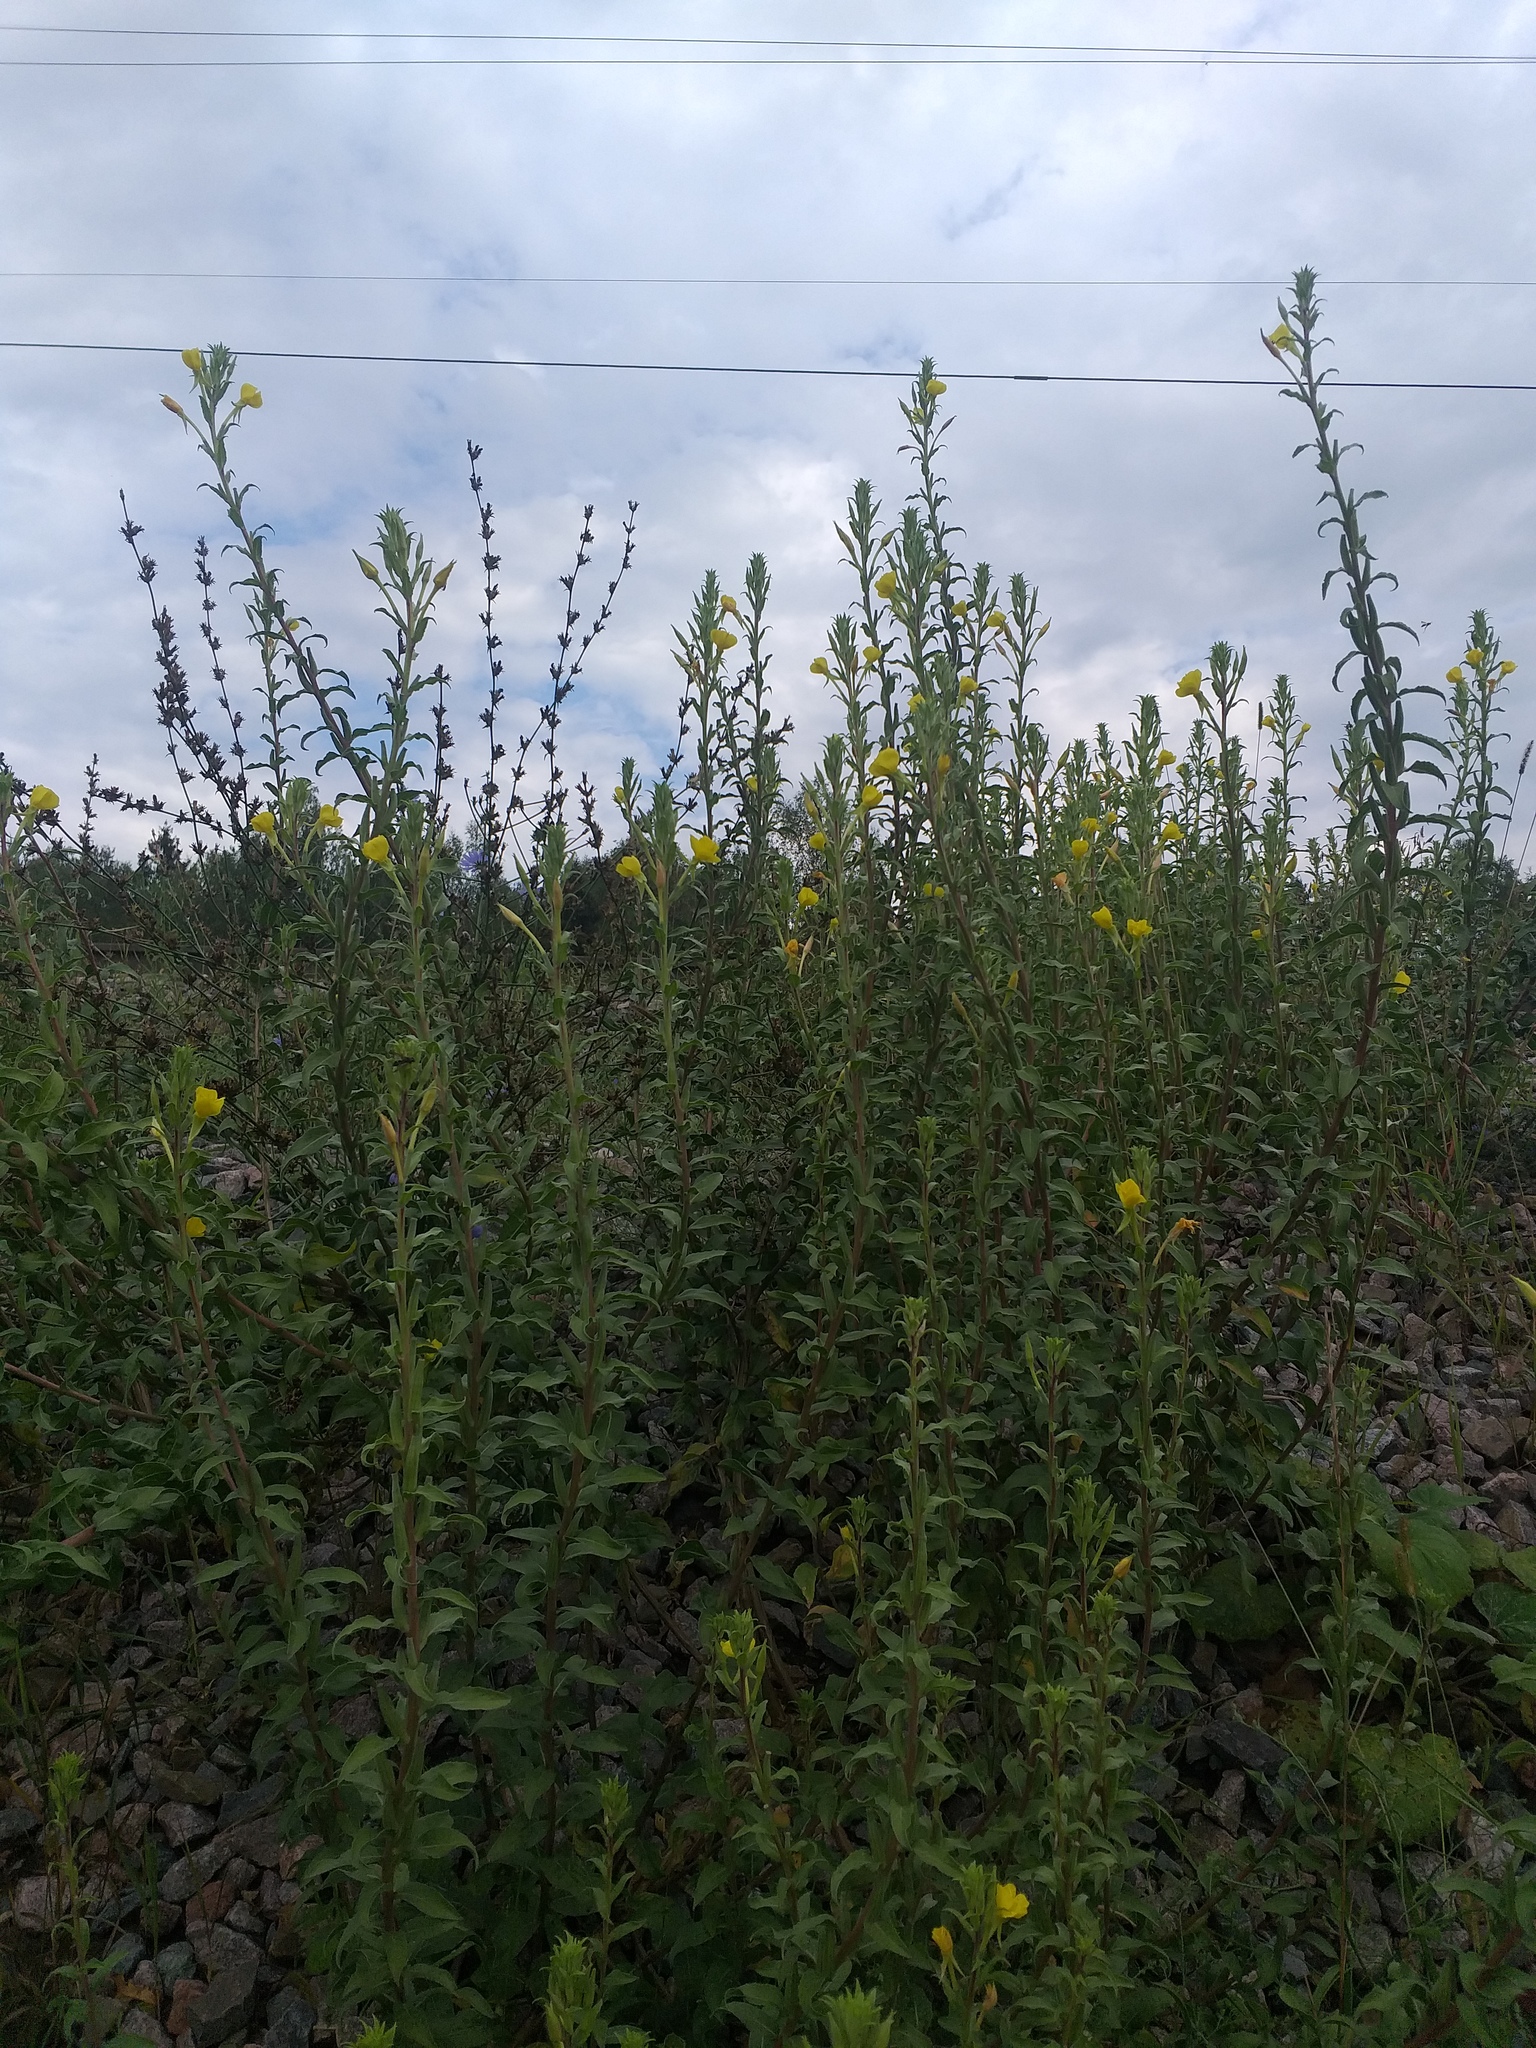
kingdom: Plantae
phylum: Tracheophyta
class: Magnoliopsida
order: Myrtales
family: Onagraceae
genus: Oenothera
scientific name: Oenothera villosa
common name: Hairy evening-primrose
